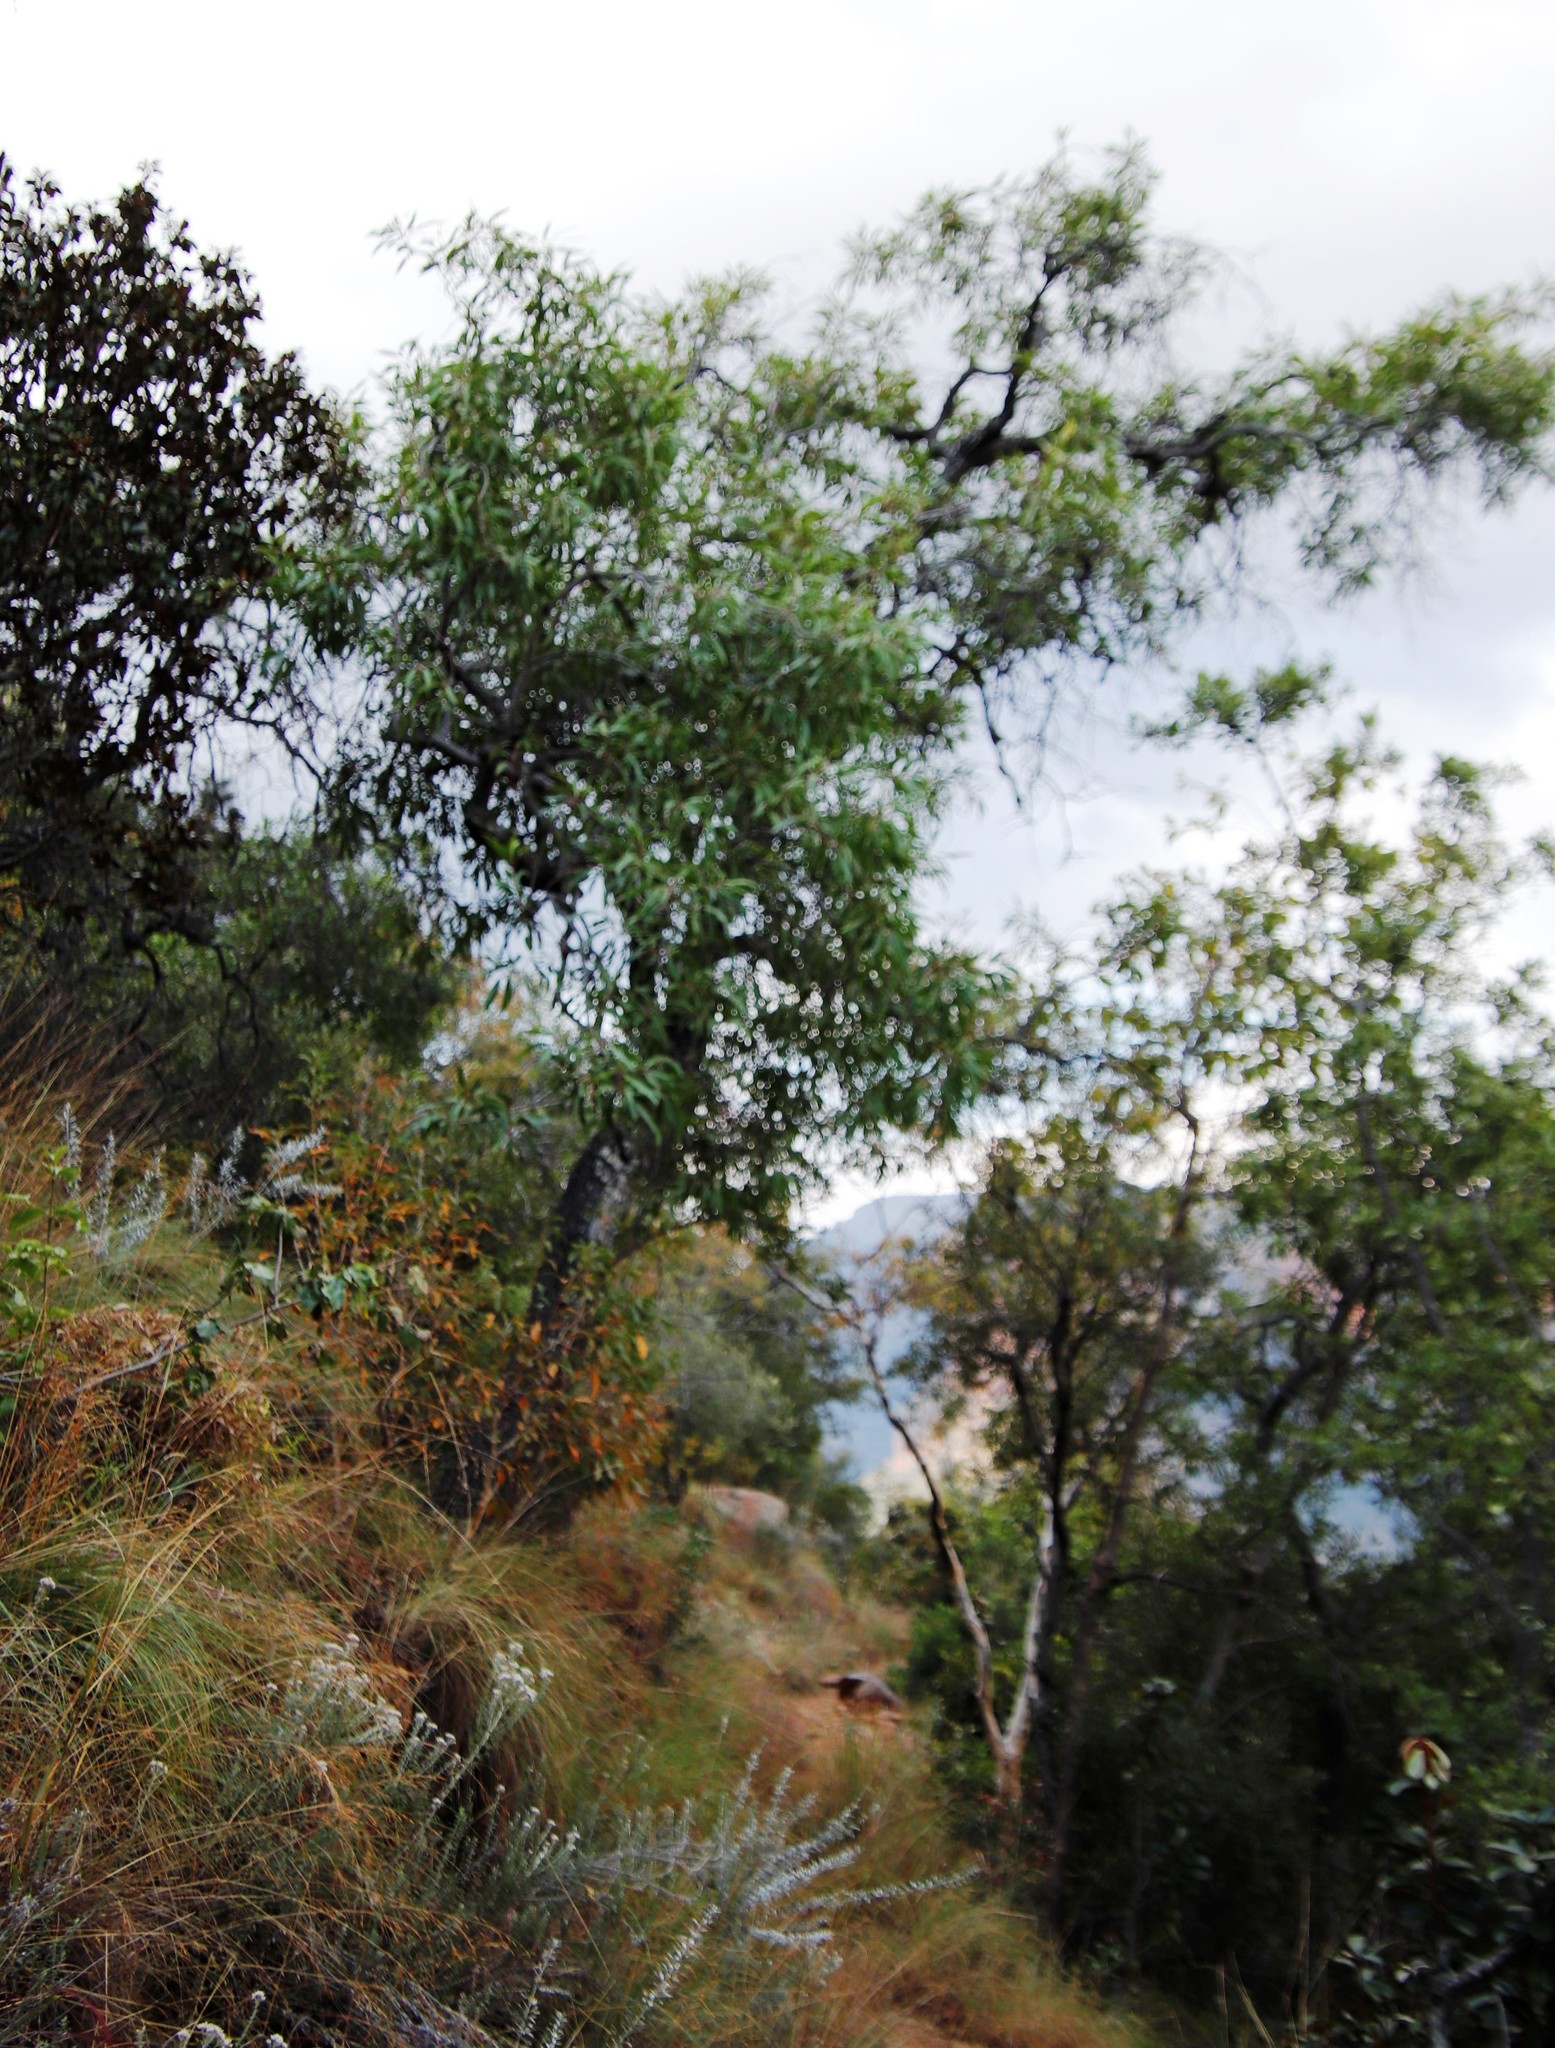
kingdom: Plantae
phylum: Tracheophyta
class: Magnoliopsida
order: Proteales
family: Proteaceae
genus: Faurea
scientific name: Faurea saligna
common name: African bean
